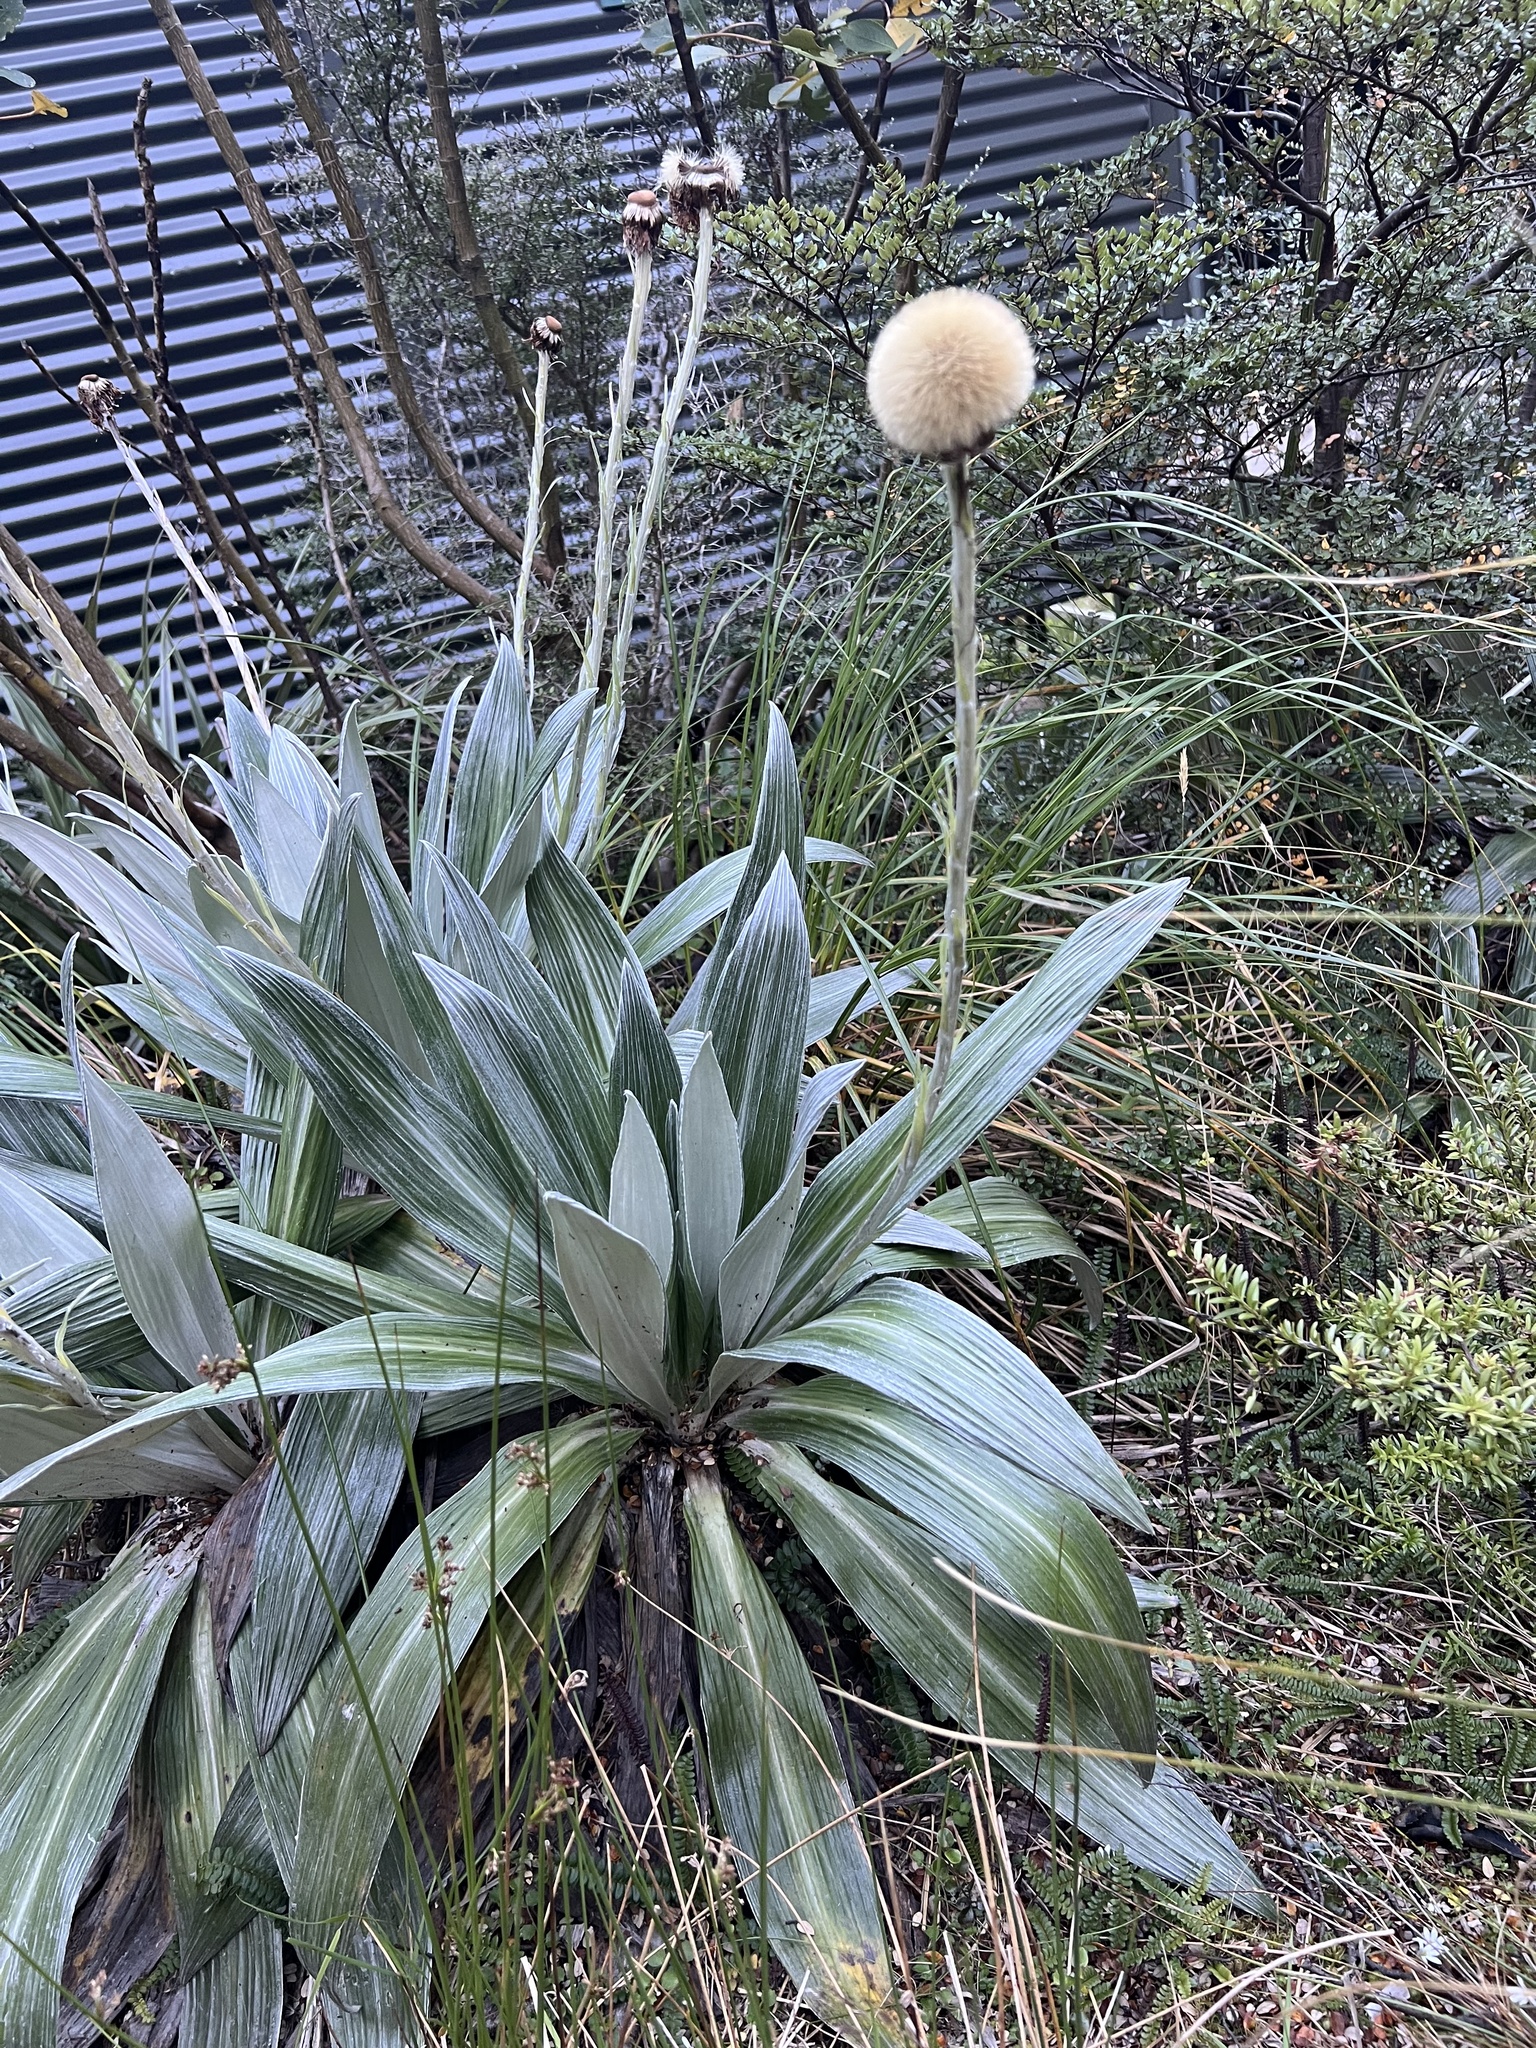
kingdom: Plantae
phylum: Tracheophyta
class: Magnoliopsida
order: Asterales
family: Asteraceae
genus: Celmisia
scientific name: Celmisia semicordata
